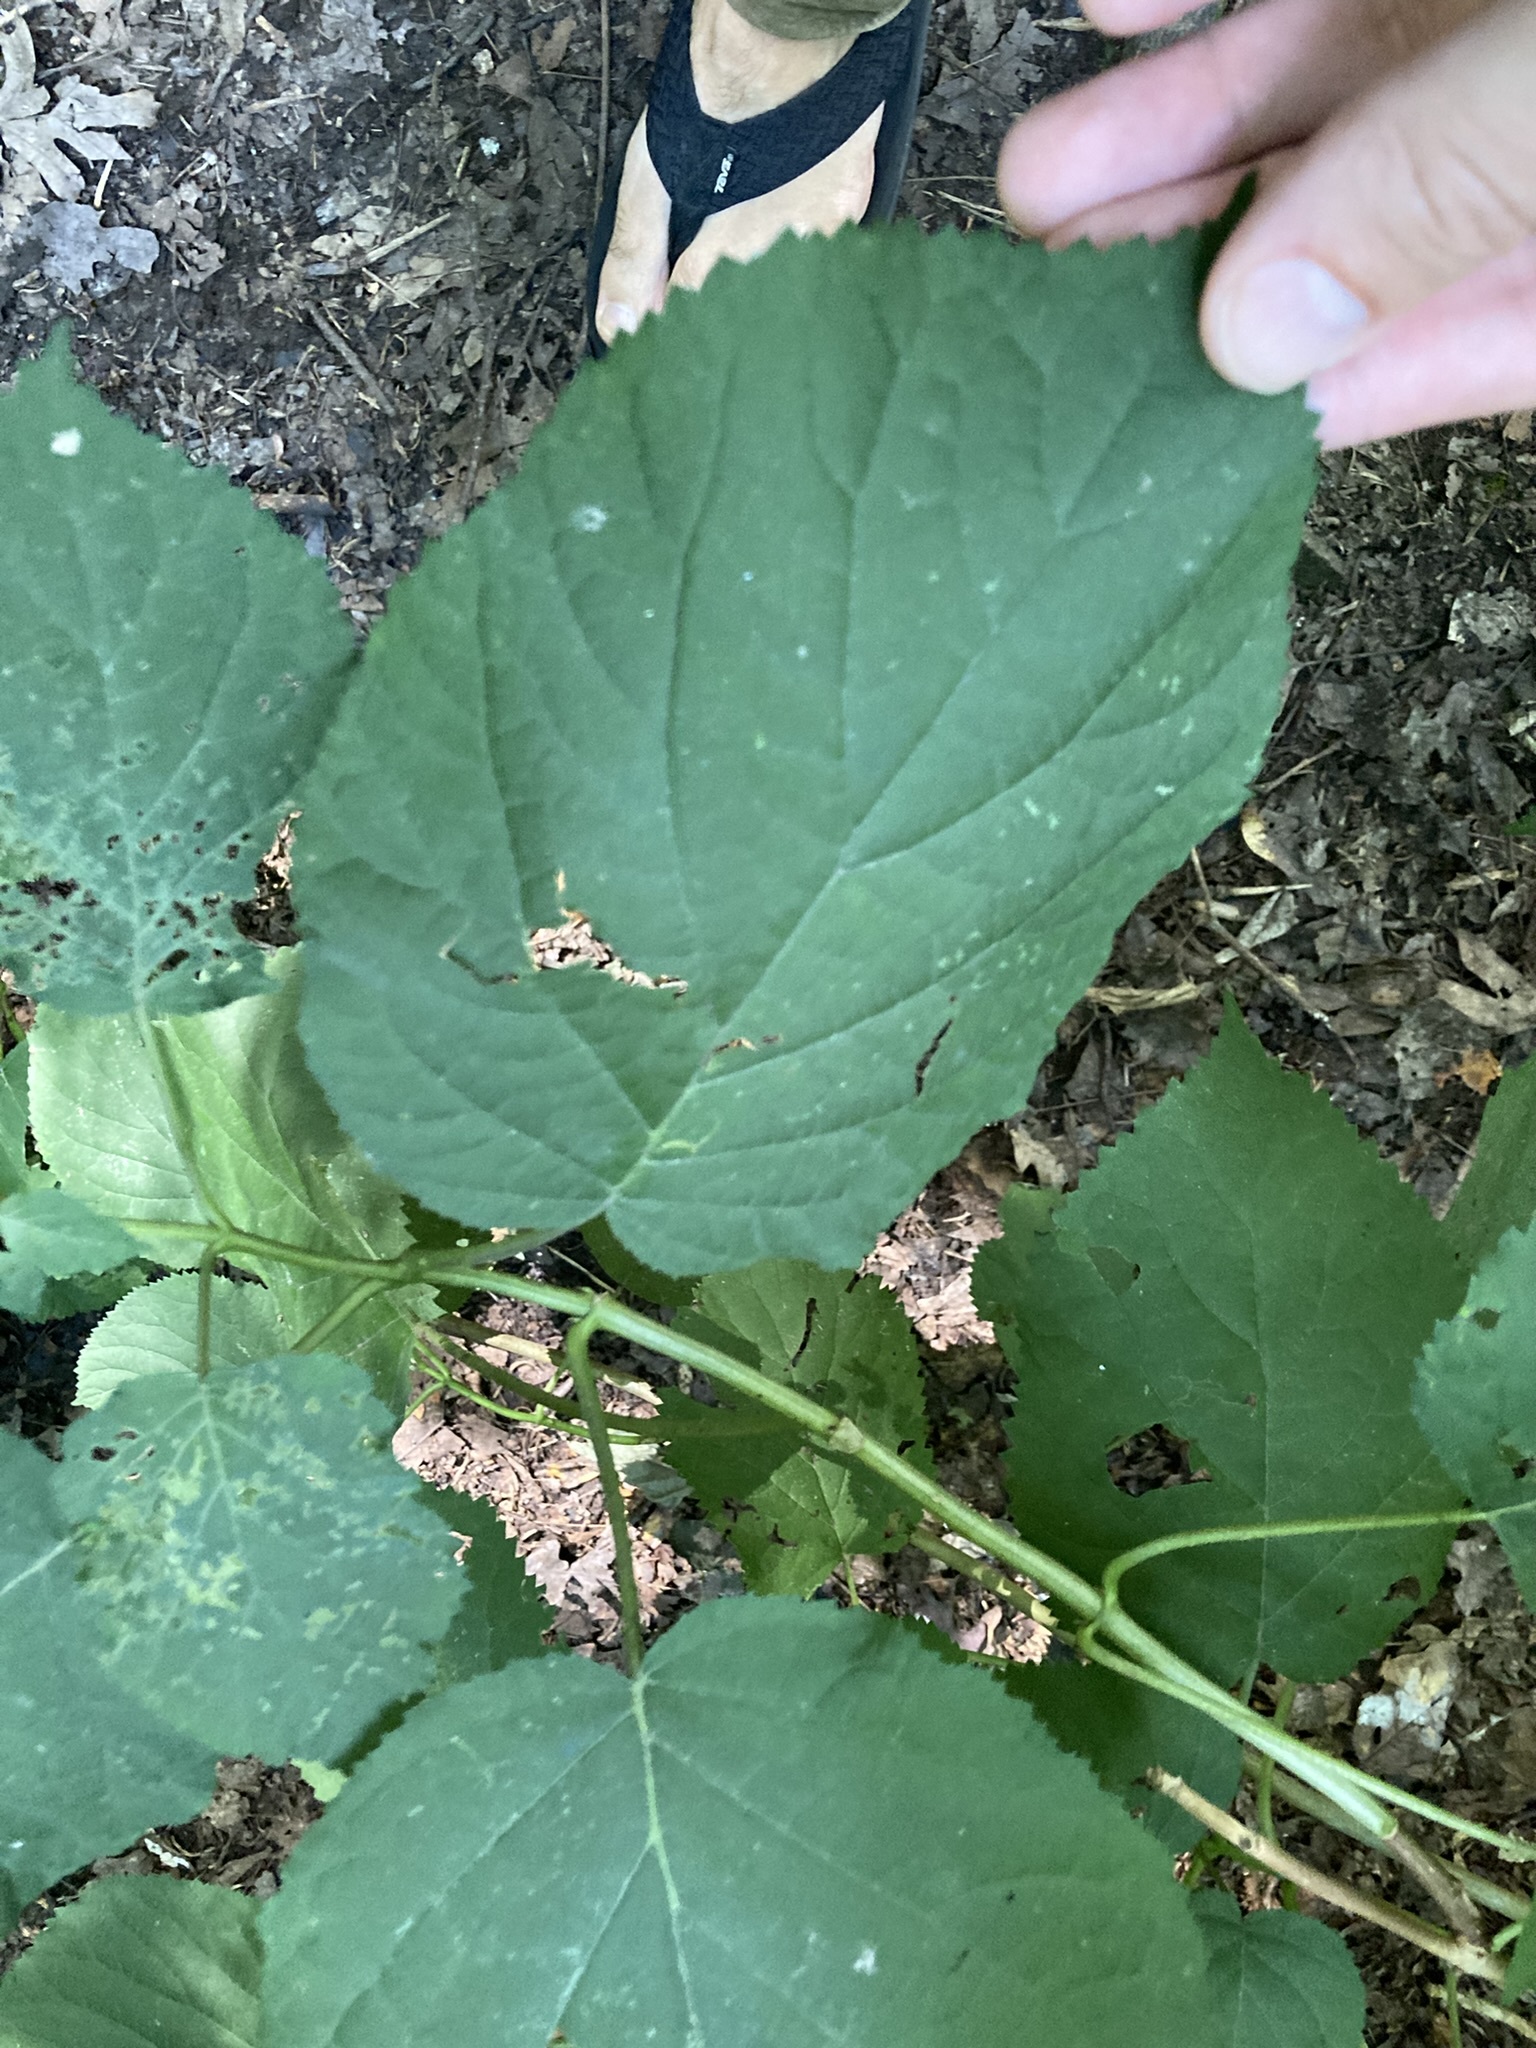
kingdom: Plantae
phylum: Tracheophyta
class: Magnoliopsida
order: Cornales
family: Hydrangeaceae
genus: Hydrangea
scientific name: Hydrangea arborescens
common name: Sevenbark
